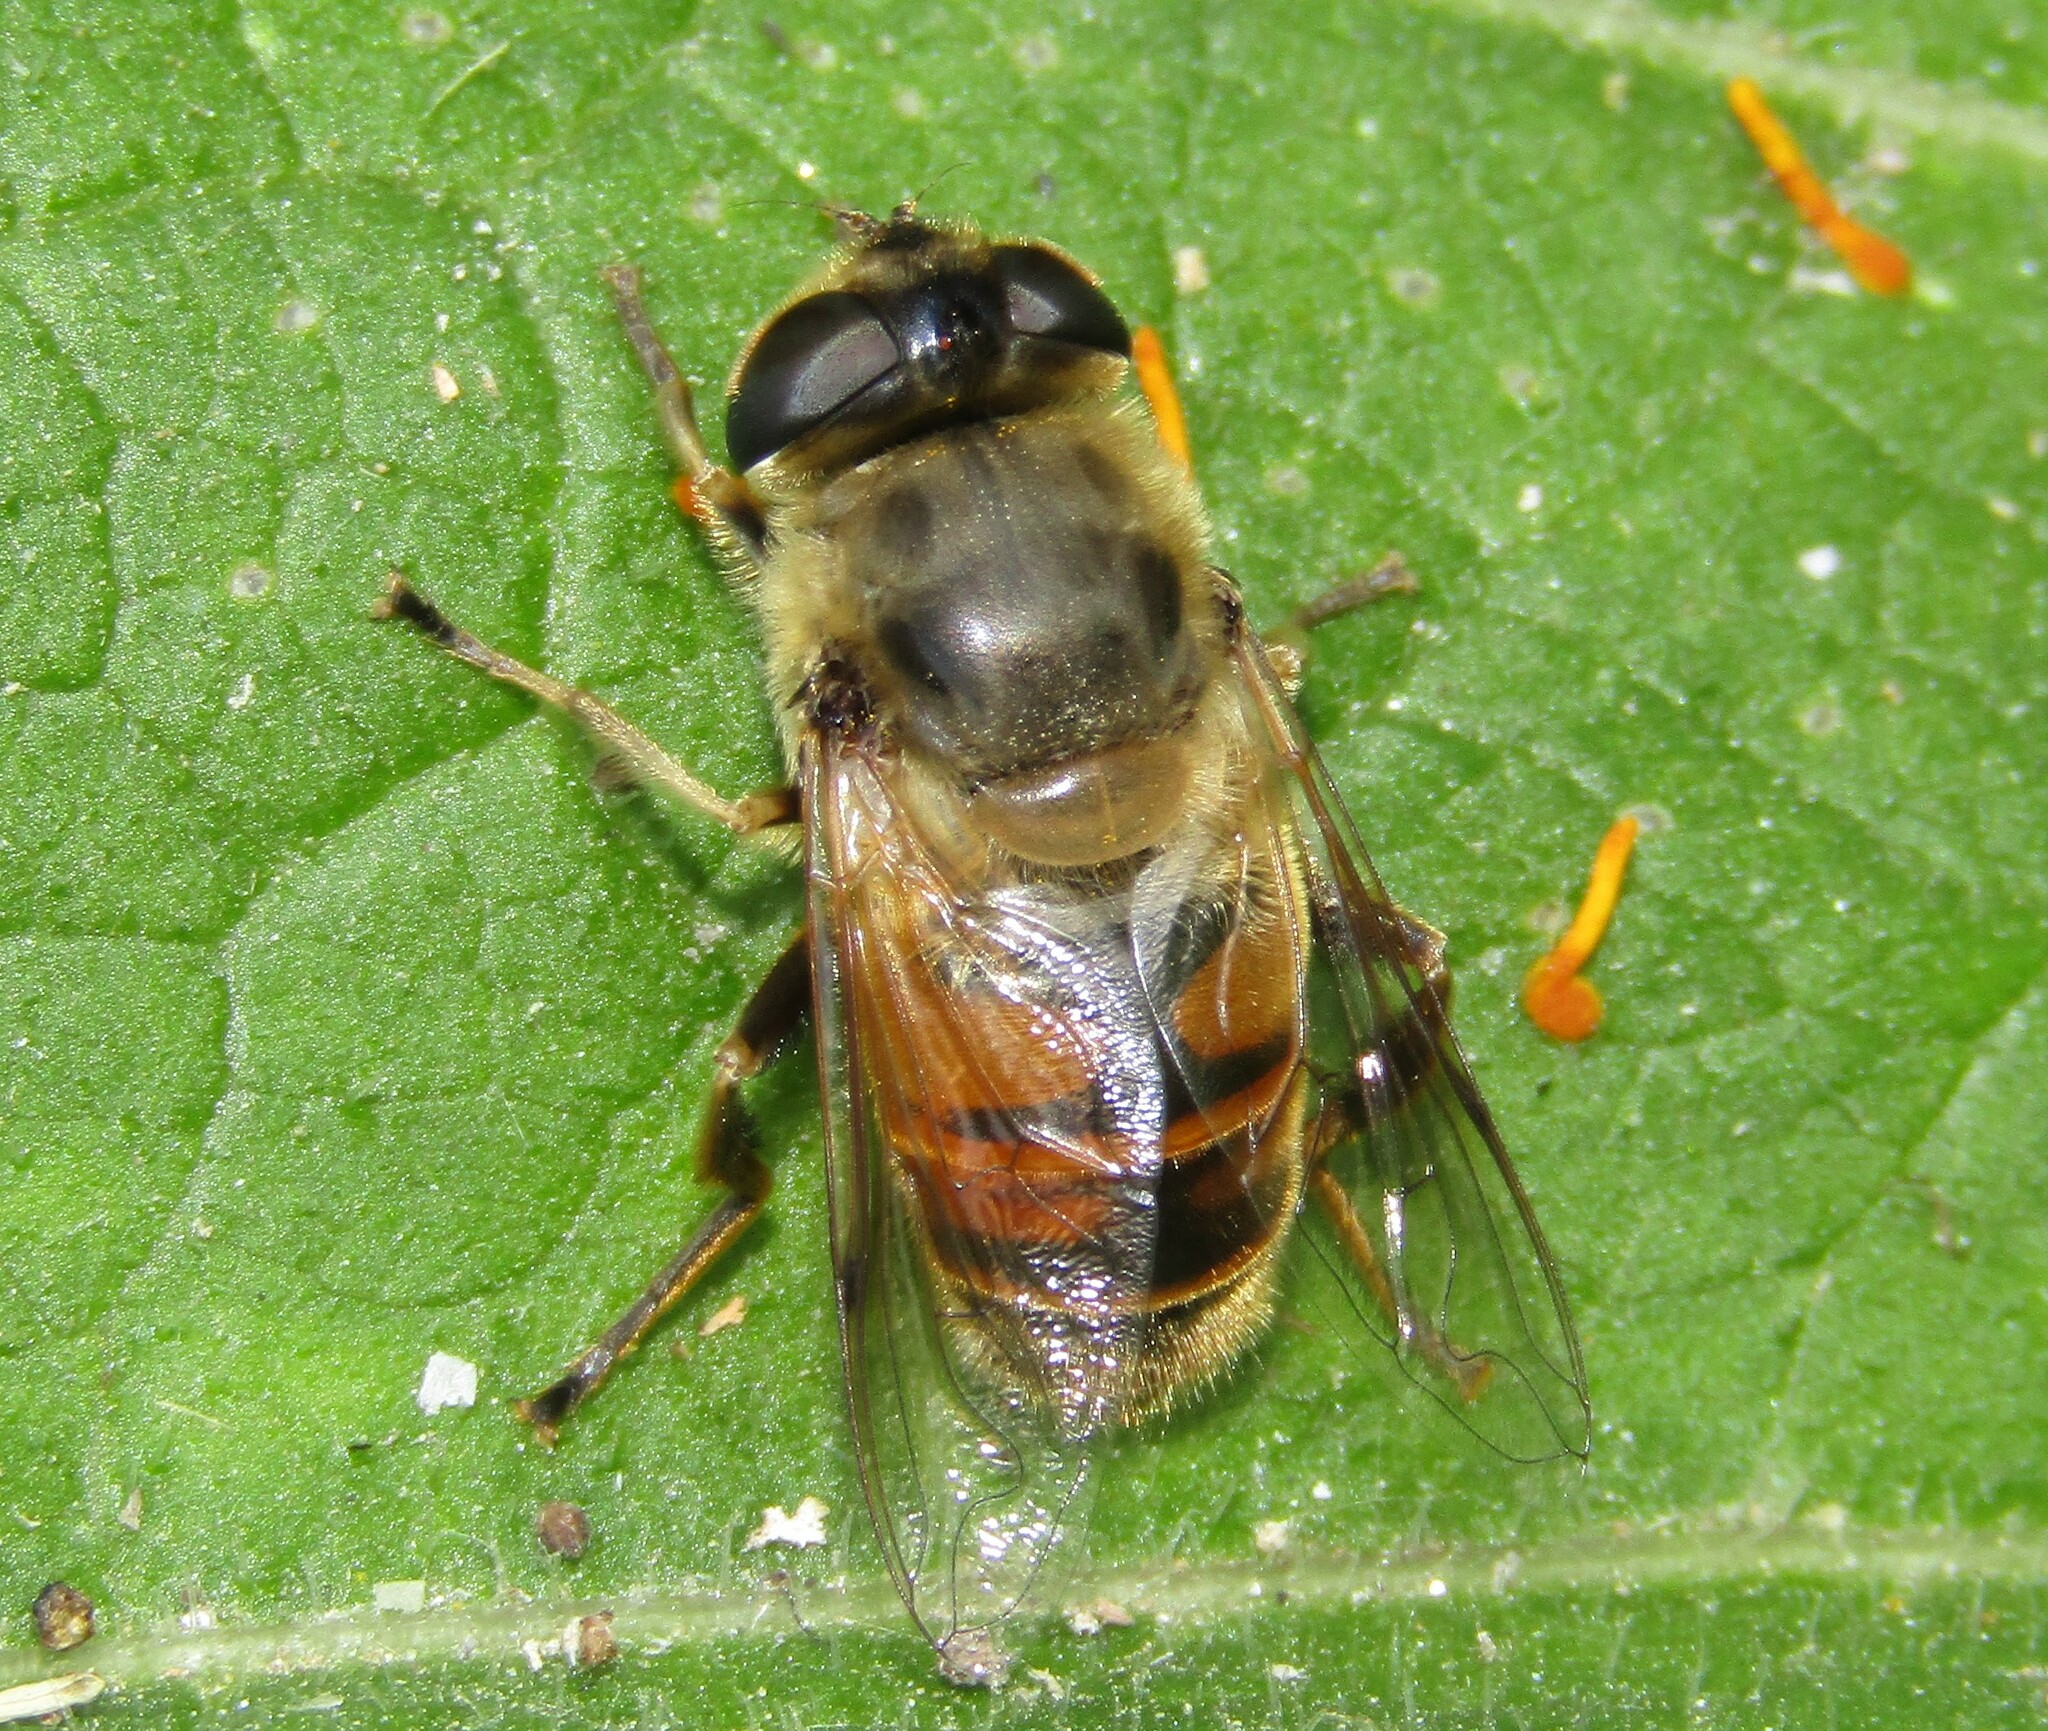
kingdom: Animalia
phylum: Arthropoda
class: Insecta
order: Diptera
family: Syrphidae
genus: Eristalis
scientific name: Eristalis tenax
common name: Drone fly
